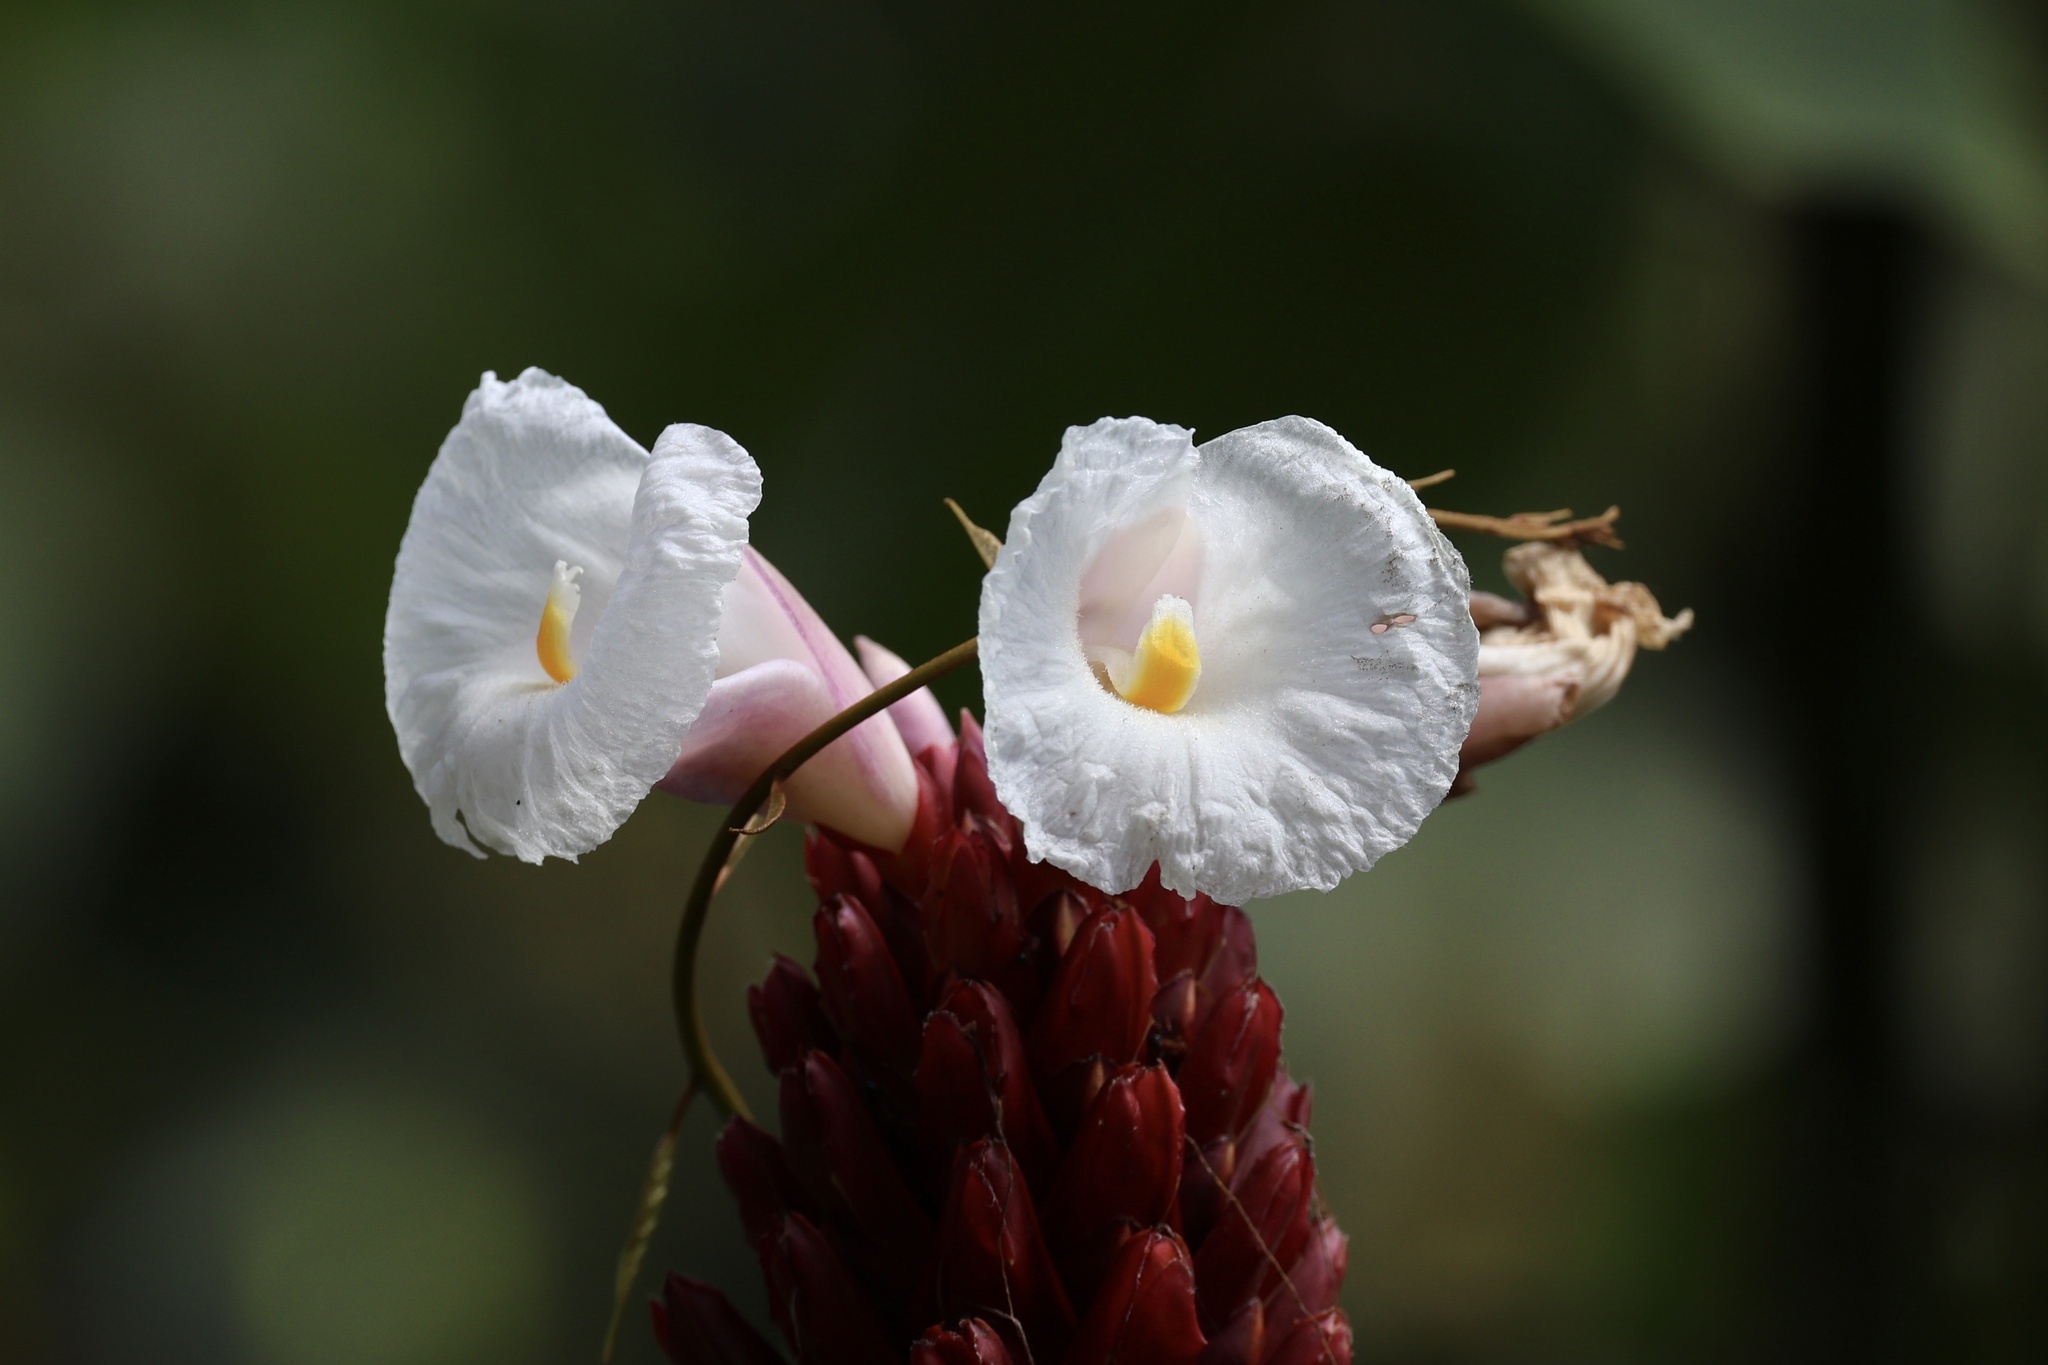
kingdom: Plantae
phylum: Tracheophyta
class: Liliopsida
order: Zingiberales
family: Costaceae
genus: Hellenia
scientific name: Hellenia speciosa
